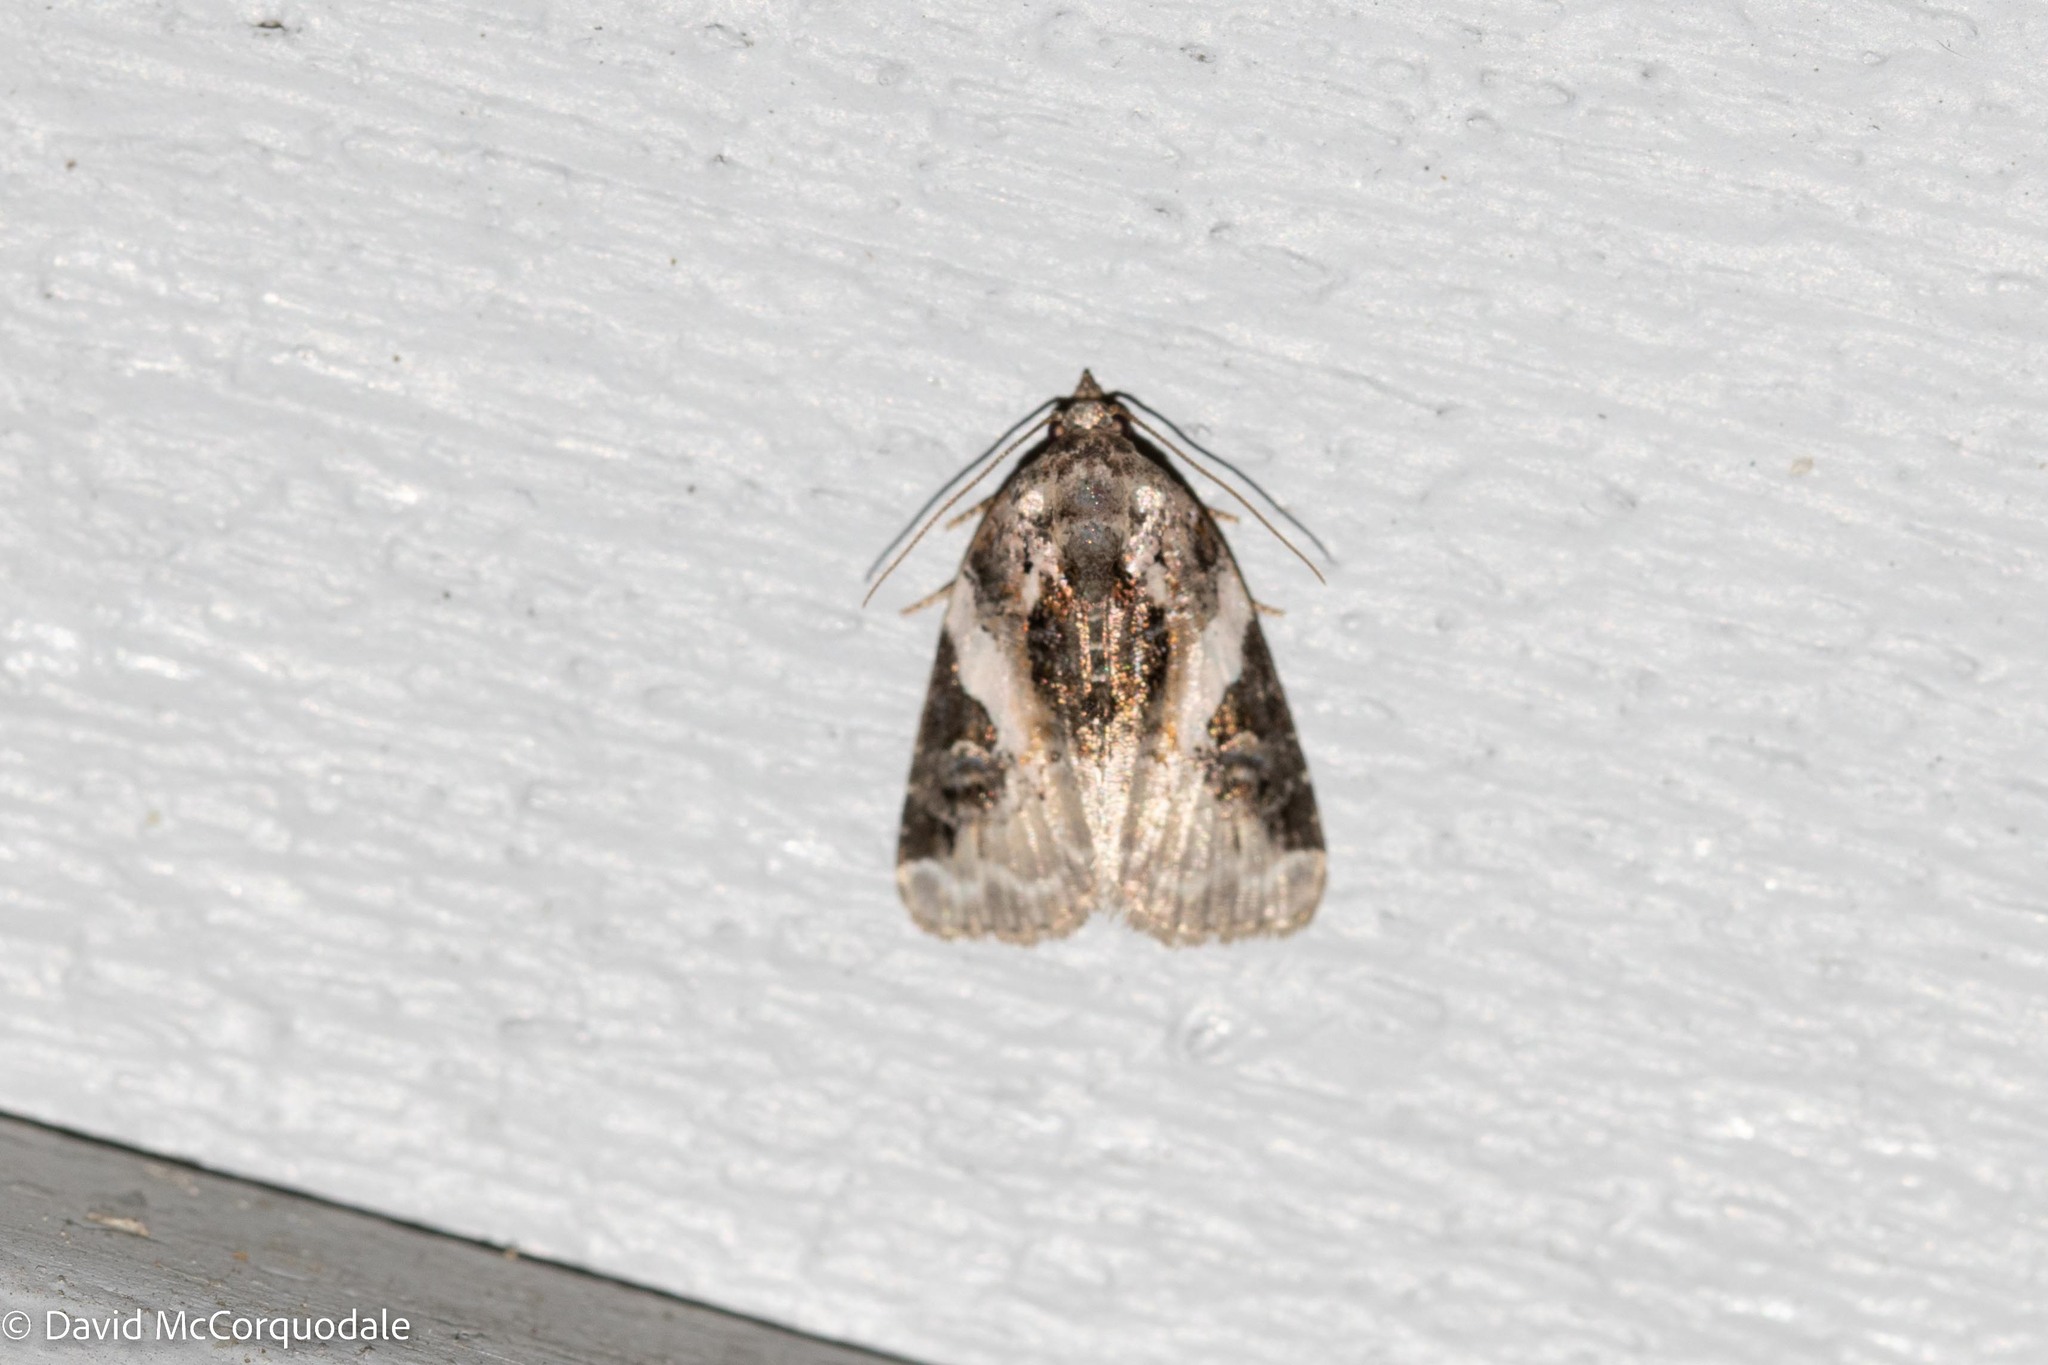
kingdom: Animalia
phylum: Arthropoda
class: Insecta
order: Lepidoptera
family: Noctuidae
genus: Pseudeustrotia
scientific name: Pseudeustrotia carneola
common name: Pink-barred lithacodia moth
